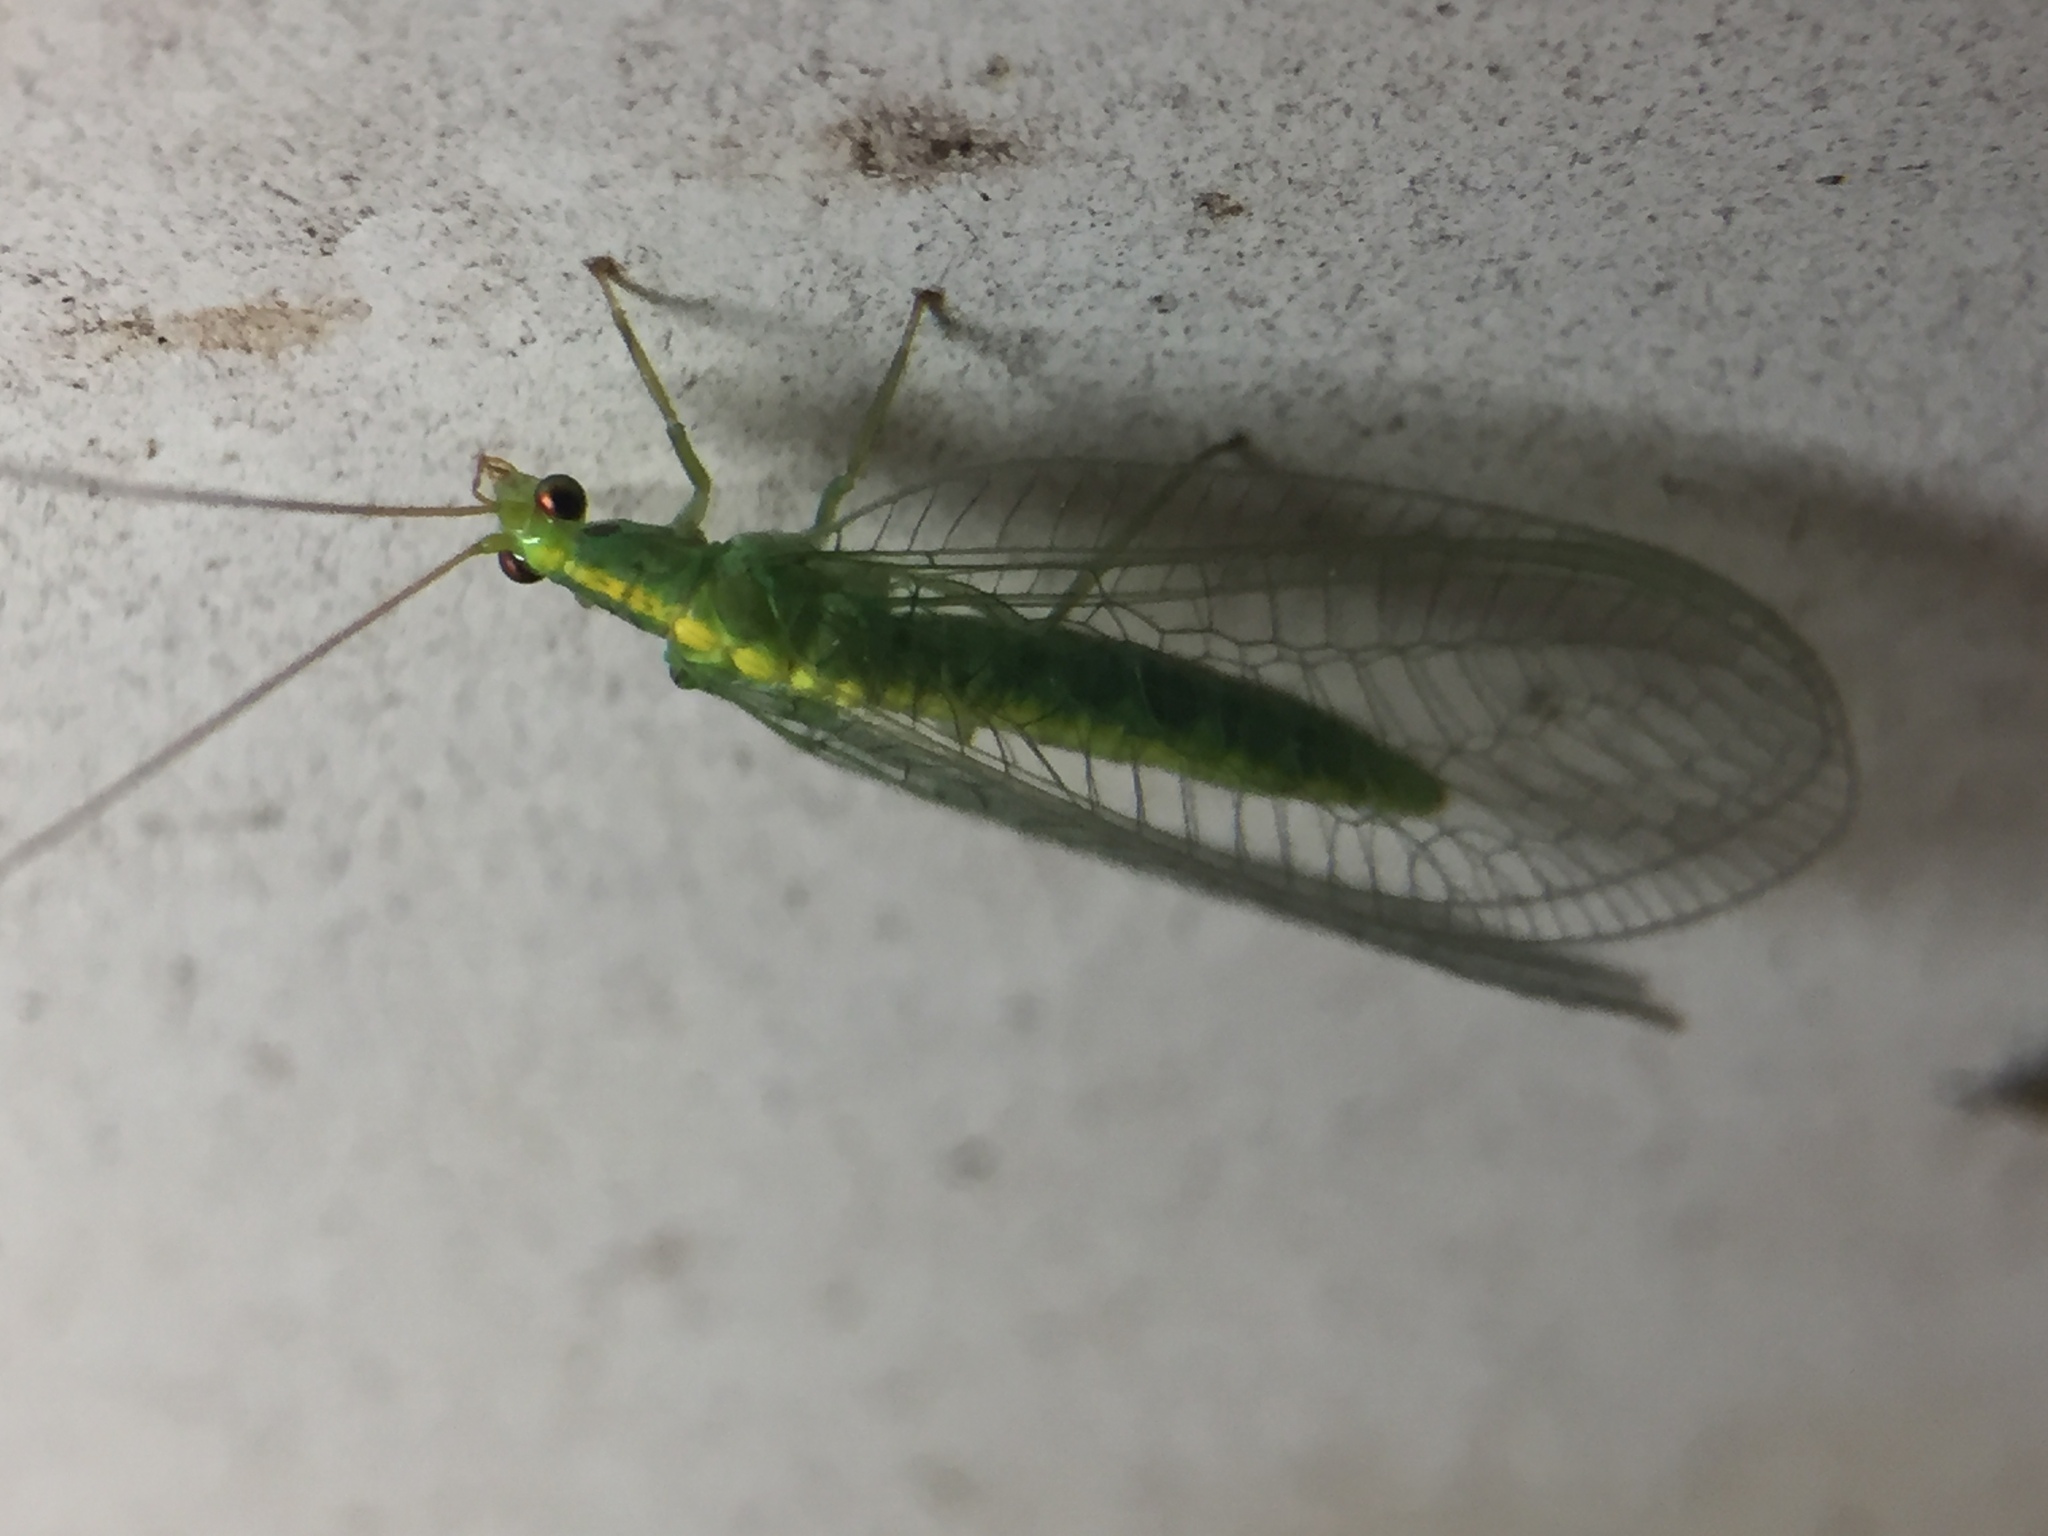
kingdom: Animalia
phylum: Arthropoda
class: Insecta
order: Neuroptera
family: Chrysopidae
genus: Mallada
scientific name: Mallada basalis
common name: Green lacewing
